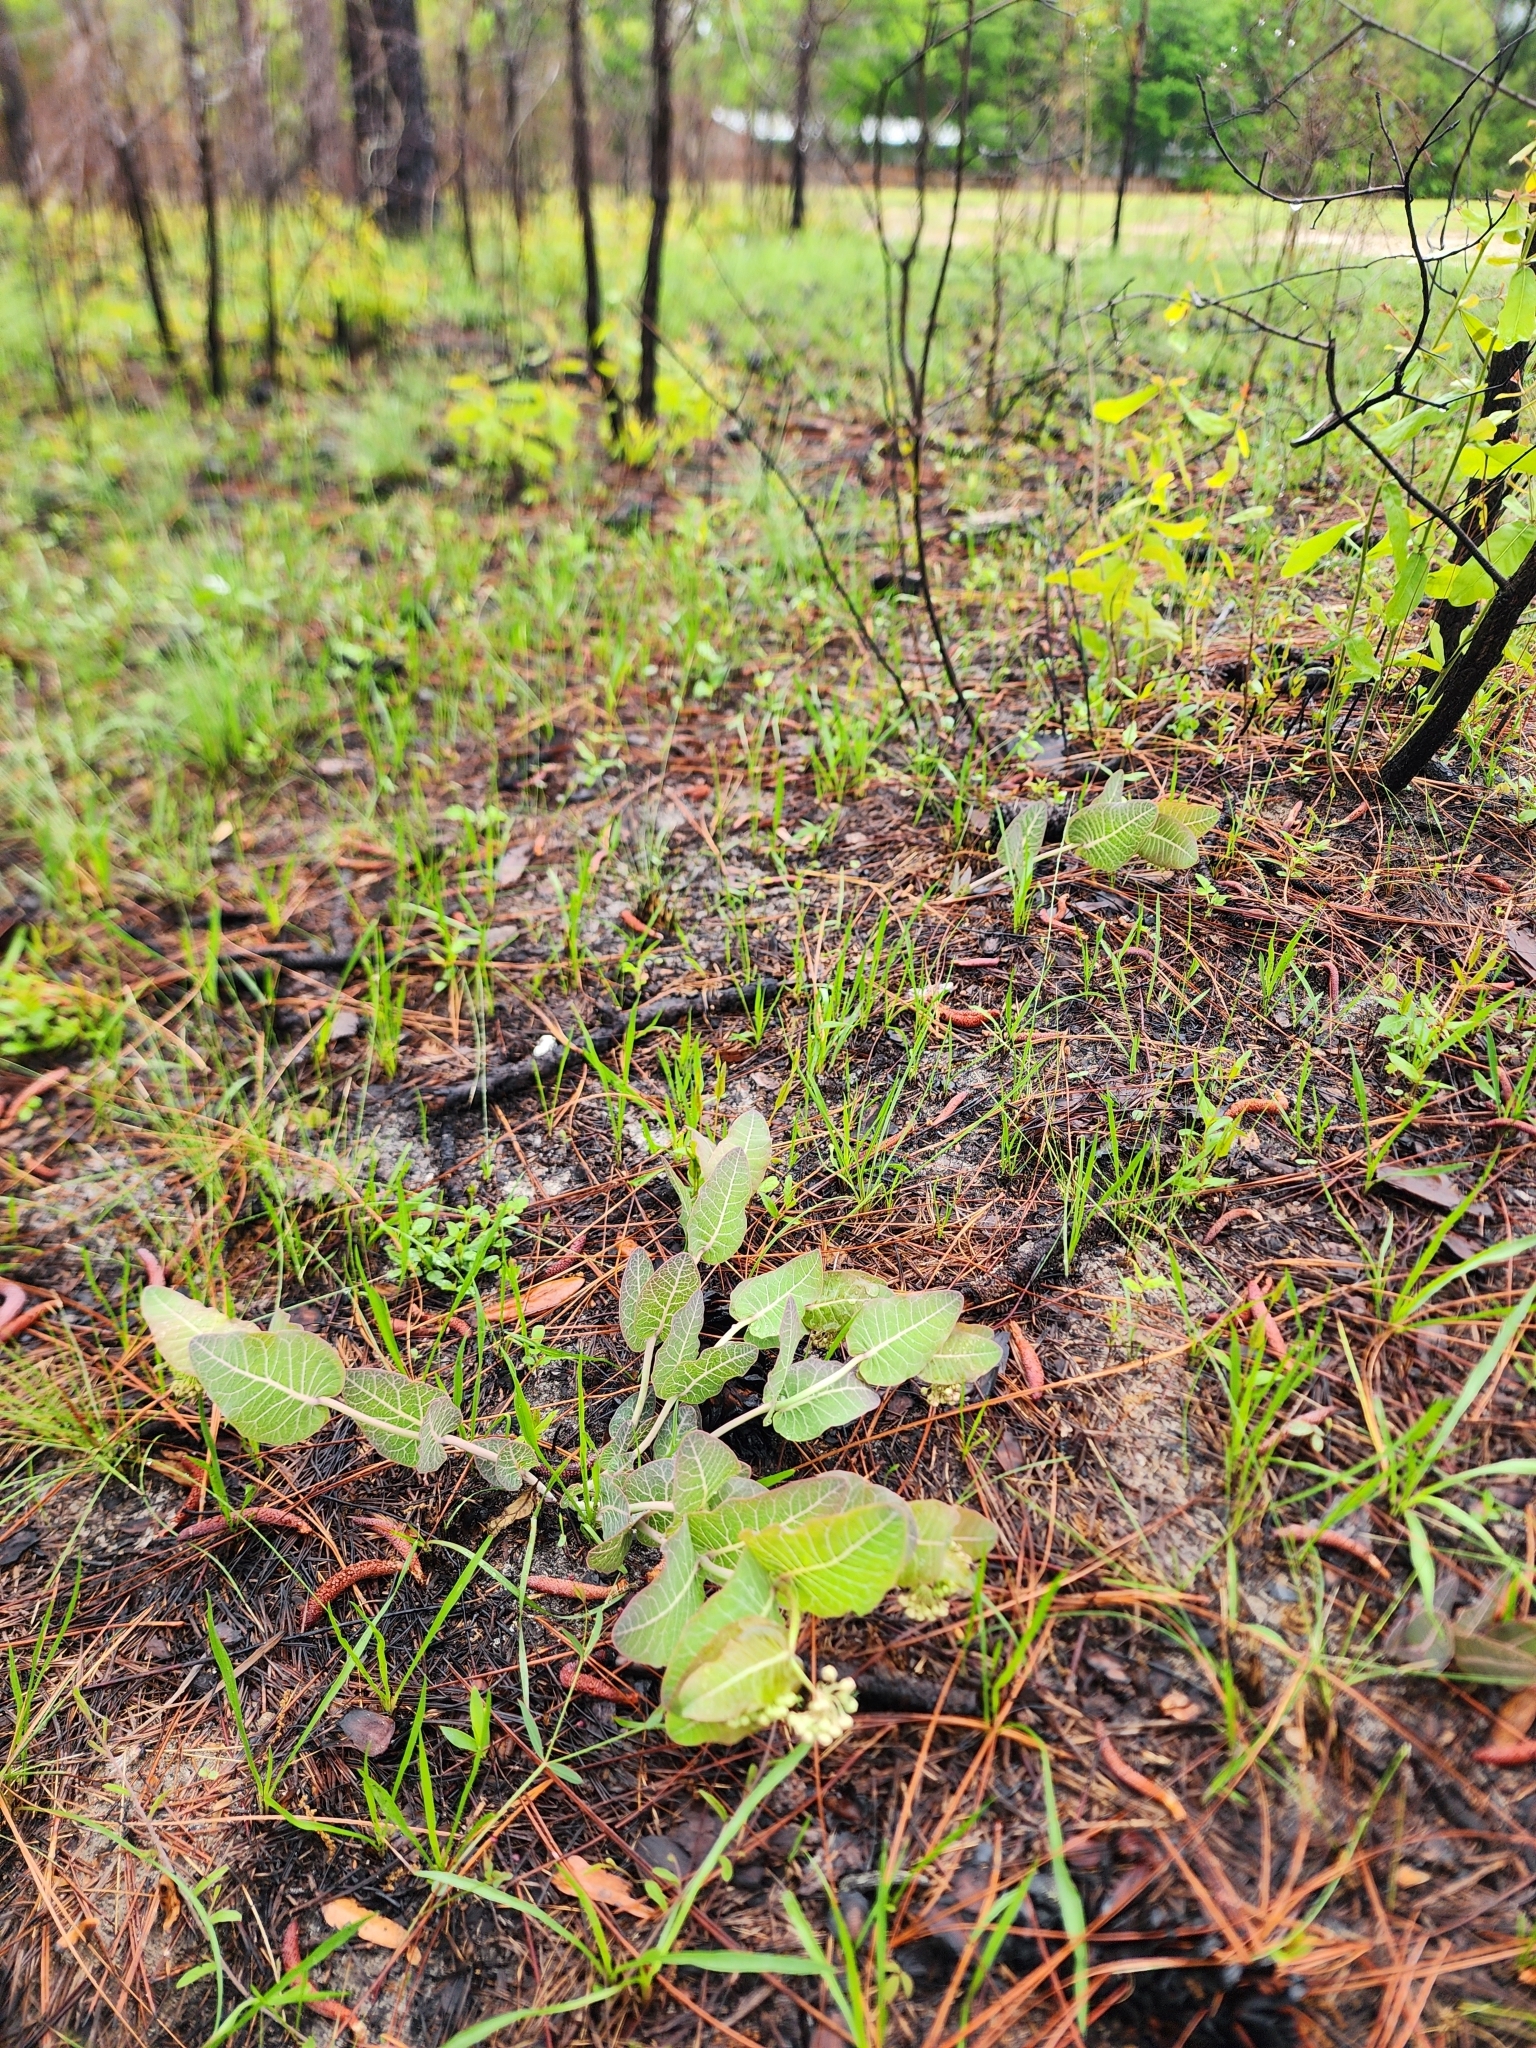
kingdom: Plantae
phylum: Tracheophyta
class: Magnoliopsida
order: Gentianales
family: Apocynaceae
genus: Asclepias
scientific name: Asclepias humistrata
